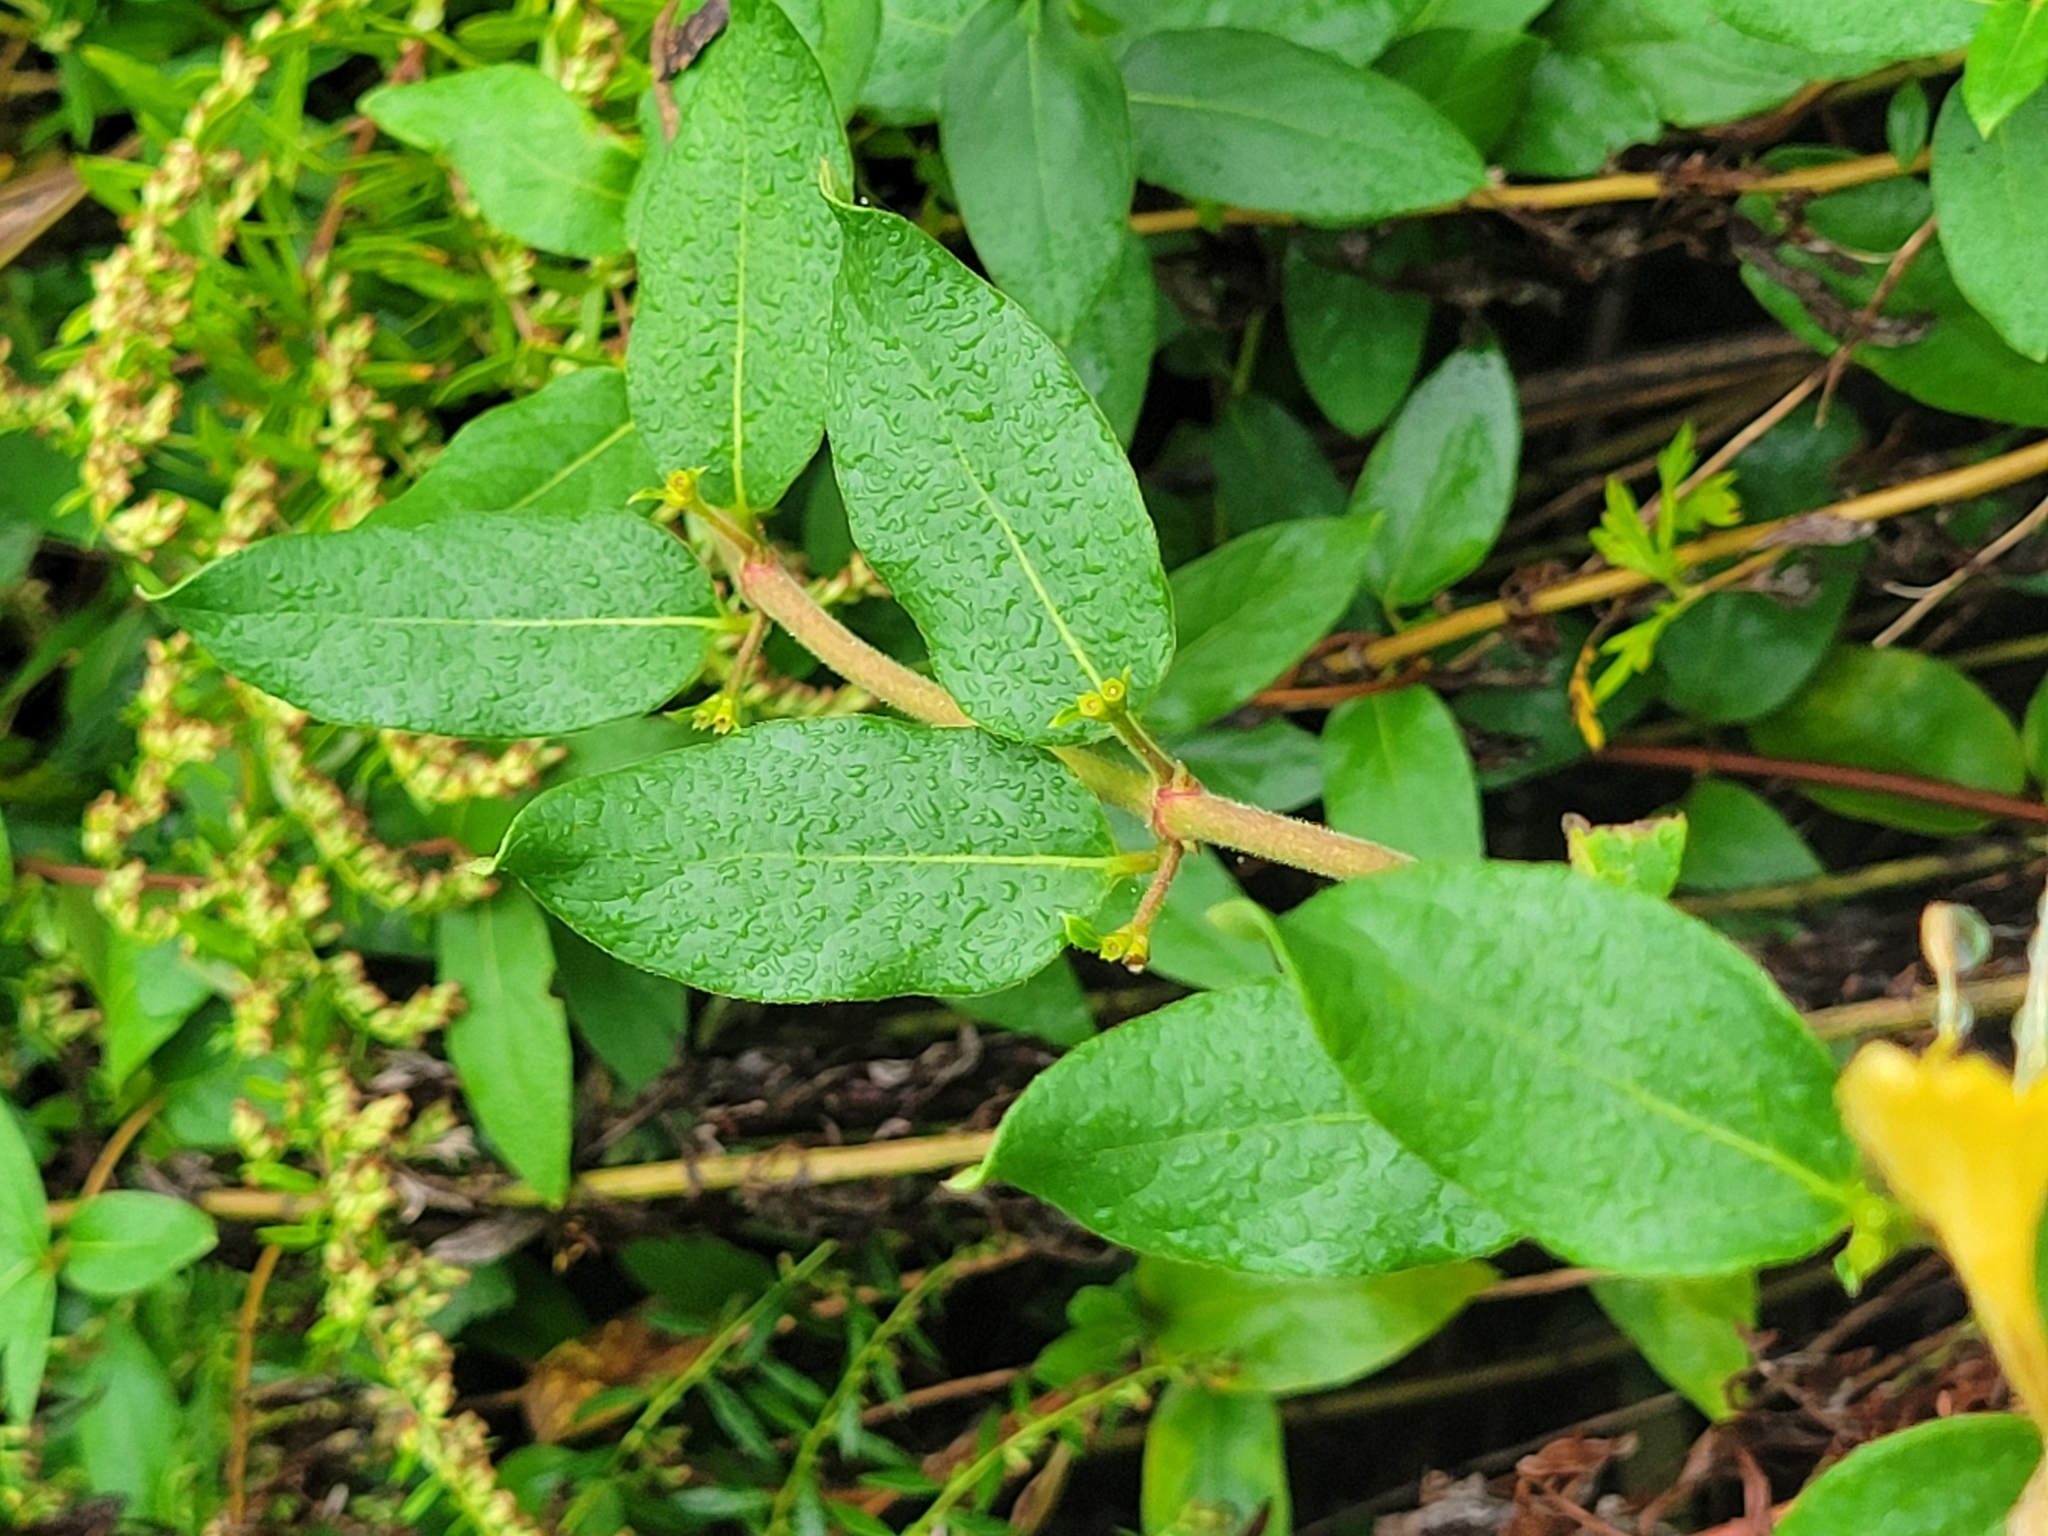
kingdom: Plantae
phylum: Tracheophyta
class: Magnoliopsida
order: Dipsacales
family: Caprifoliaceae
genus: Lonicera
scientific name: Lonicera japonica
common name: Japanese honeysuckle
